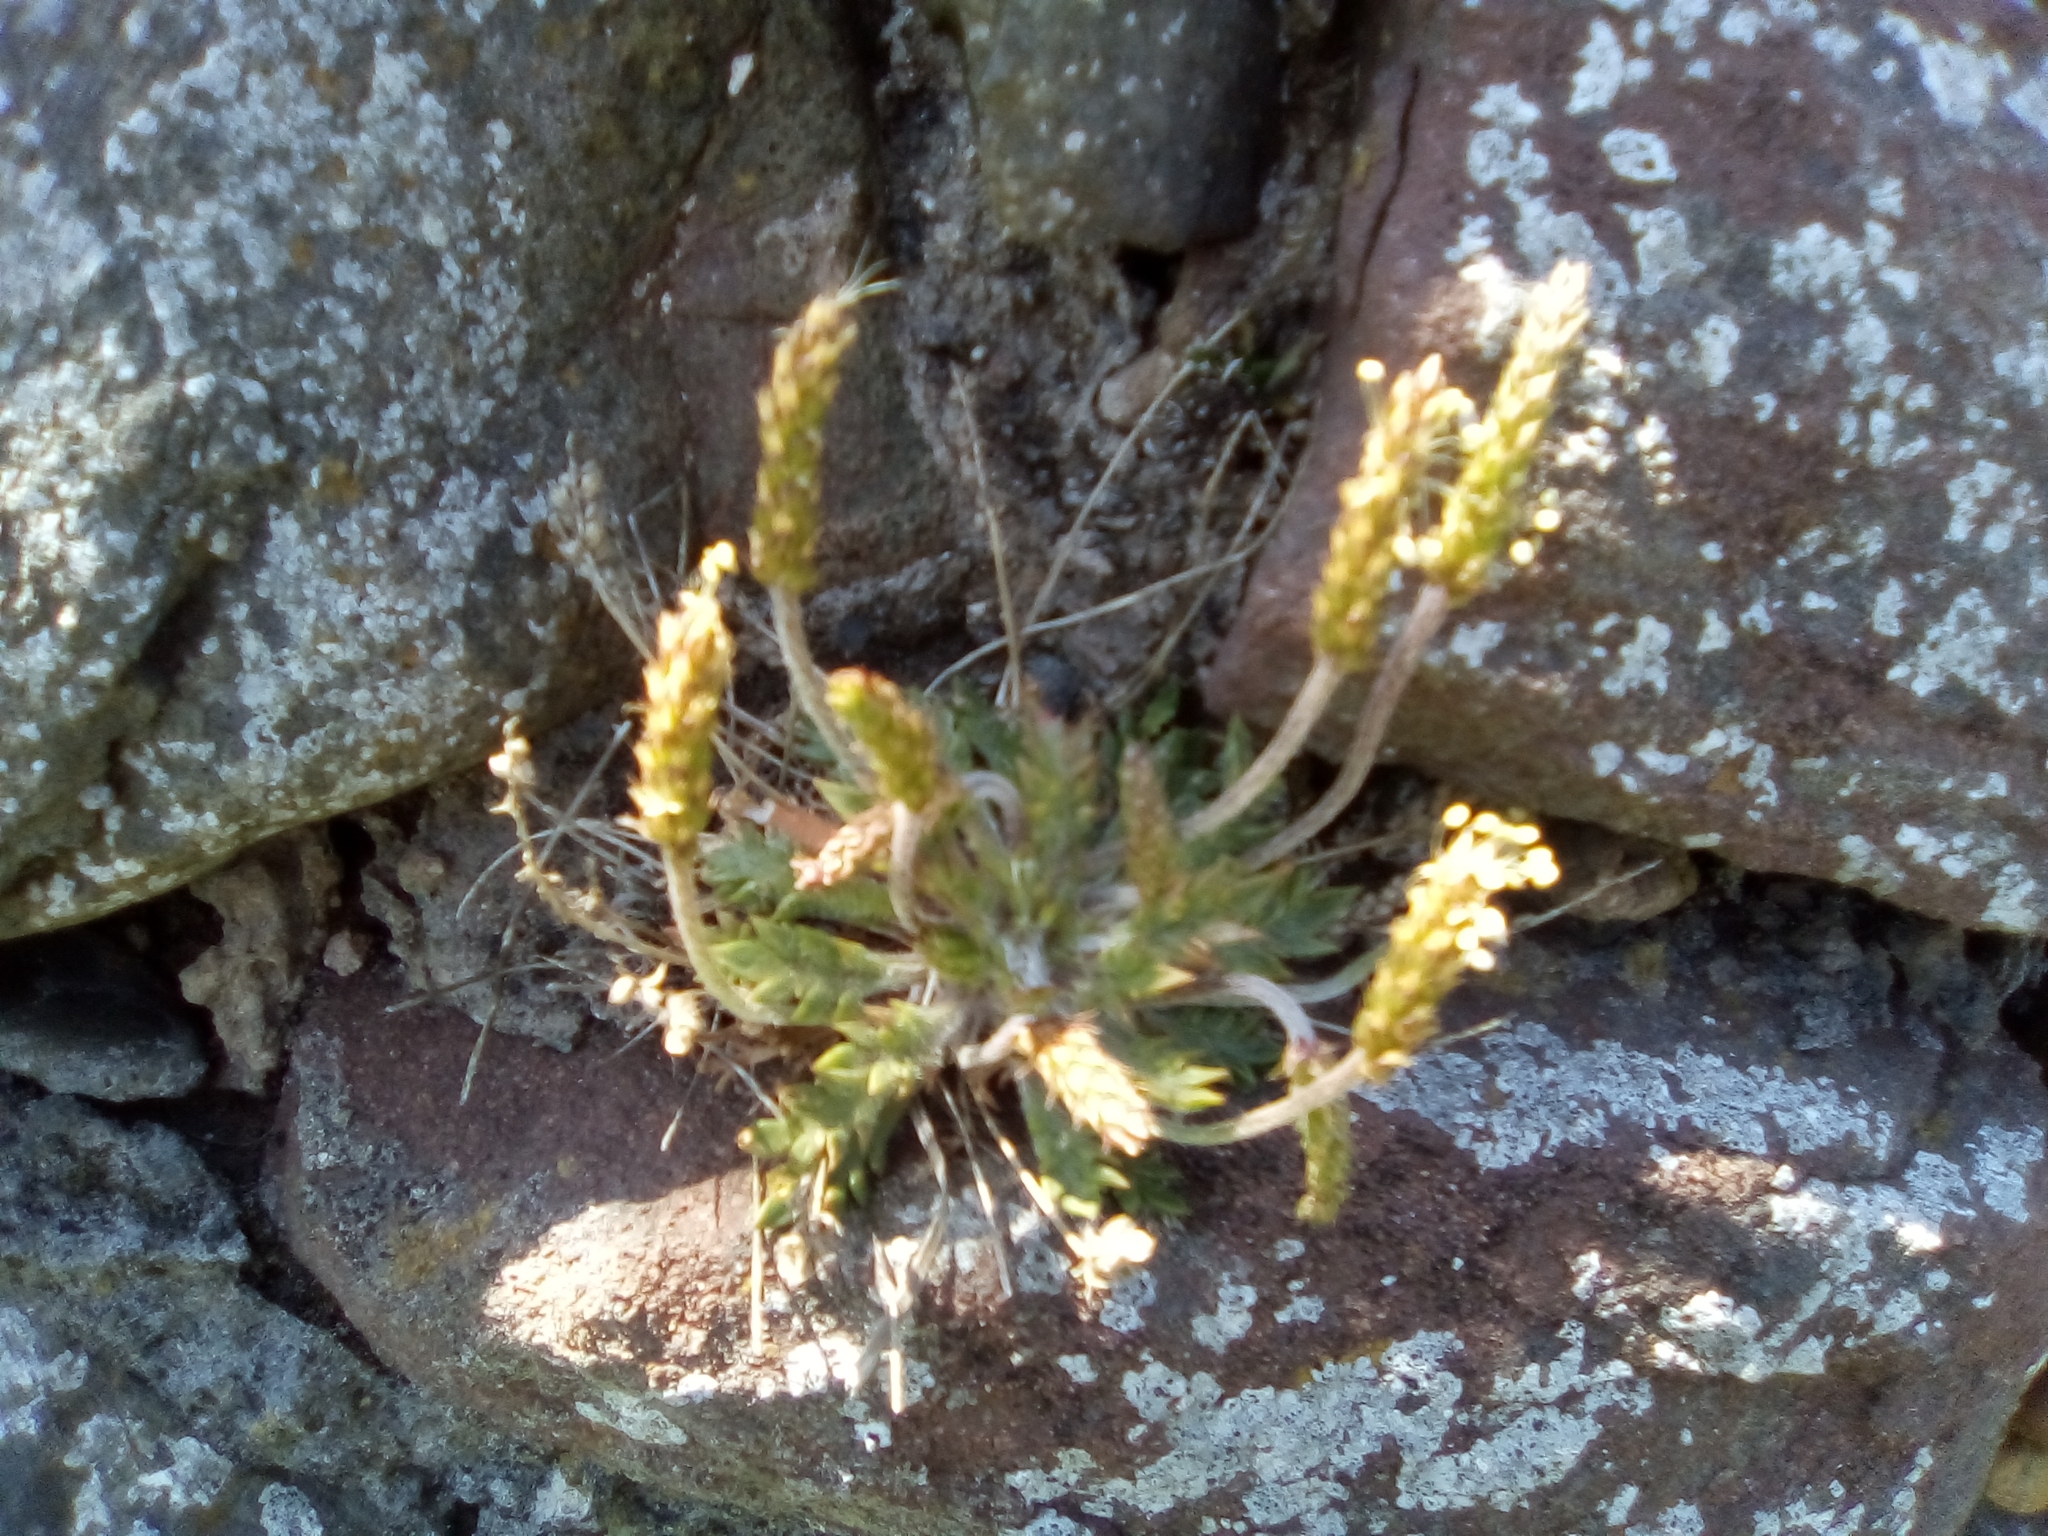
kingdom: Plantae
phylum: Tracheophyta
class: Magnoliopsida
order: Lamiales
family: Plantaginaceae
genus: Plantago
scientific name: Plantago coronopus
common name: Buck's-horn plantain
